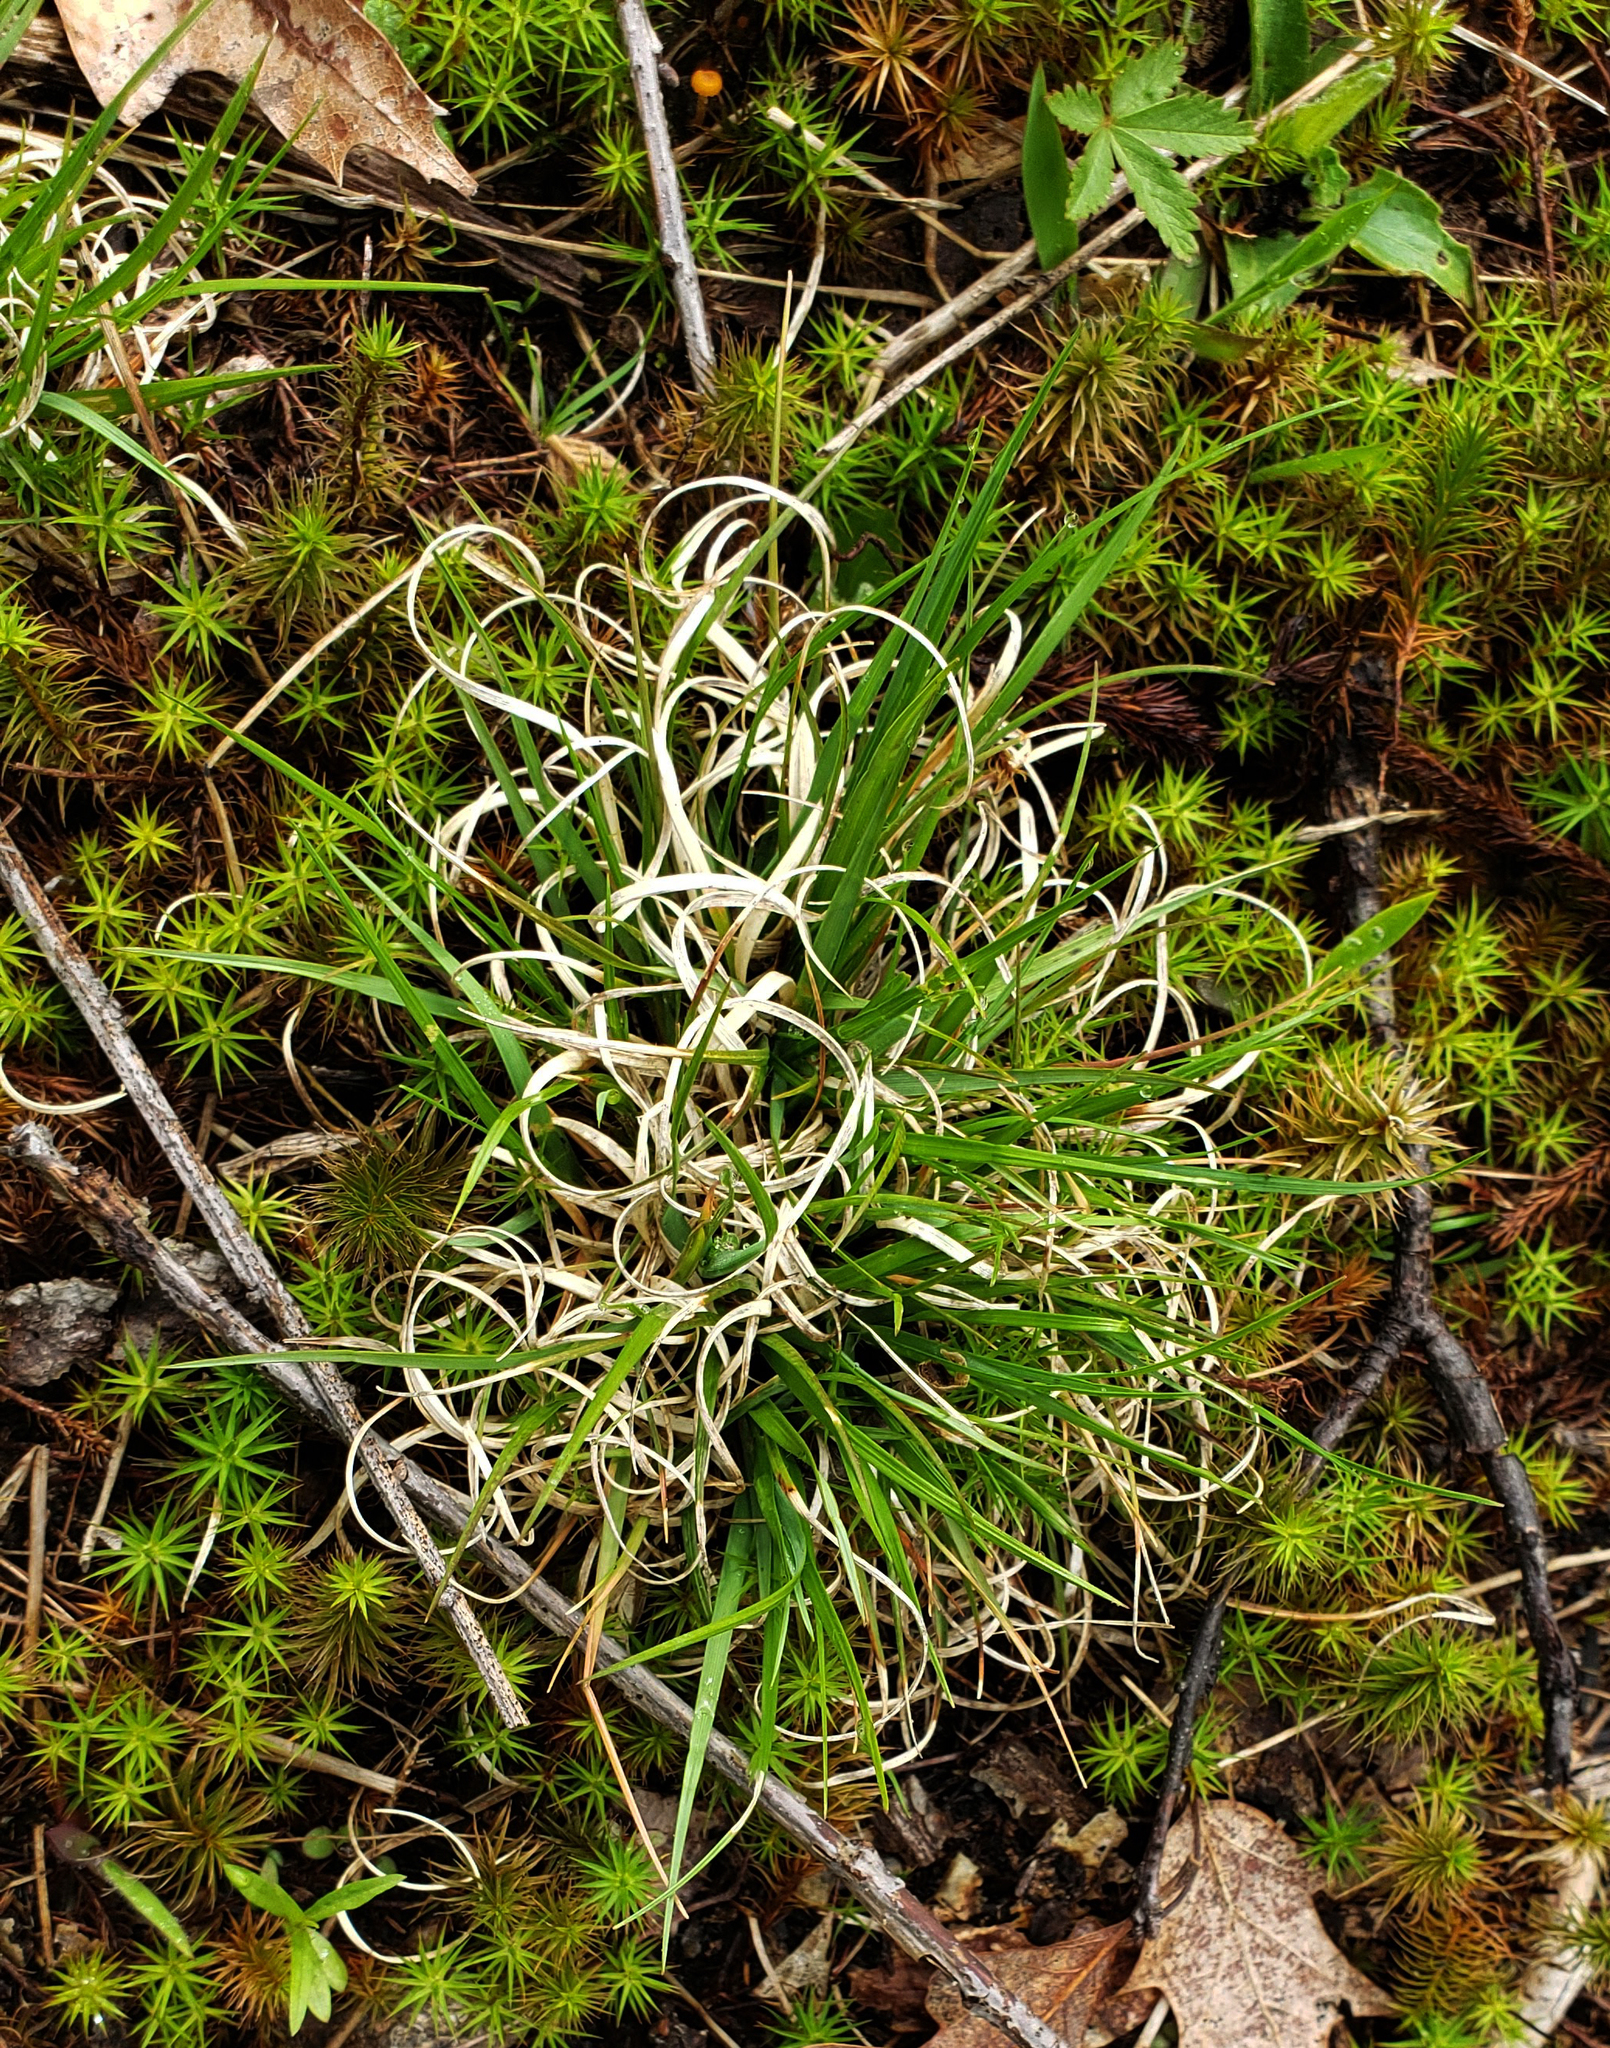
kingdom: Plantae
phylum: Tracheophyta
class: Liliopsida
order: Poales
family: Poaceae
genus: Danthonia
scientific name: Danthonia spicata
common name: Common wild oatgrass
